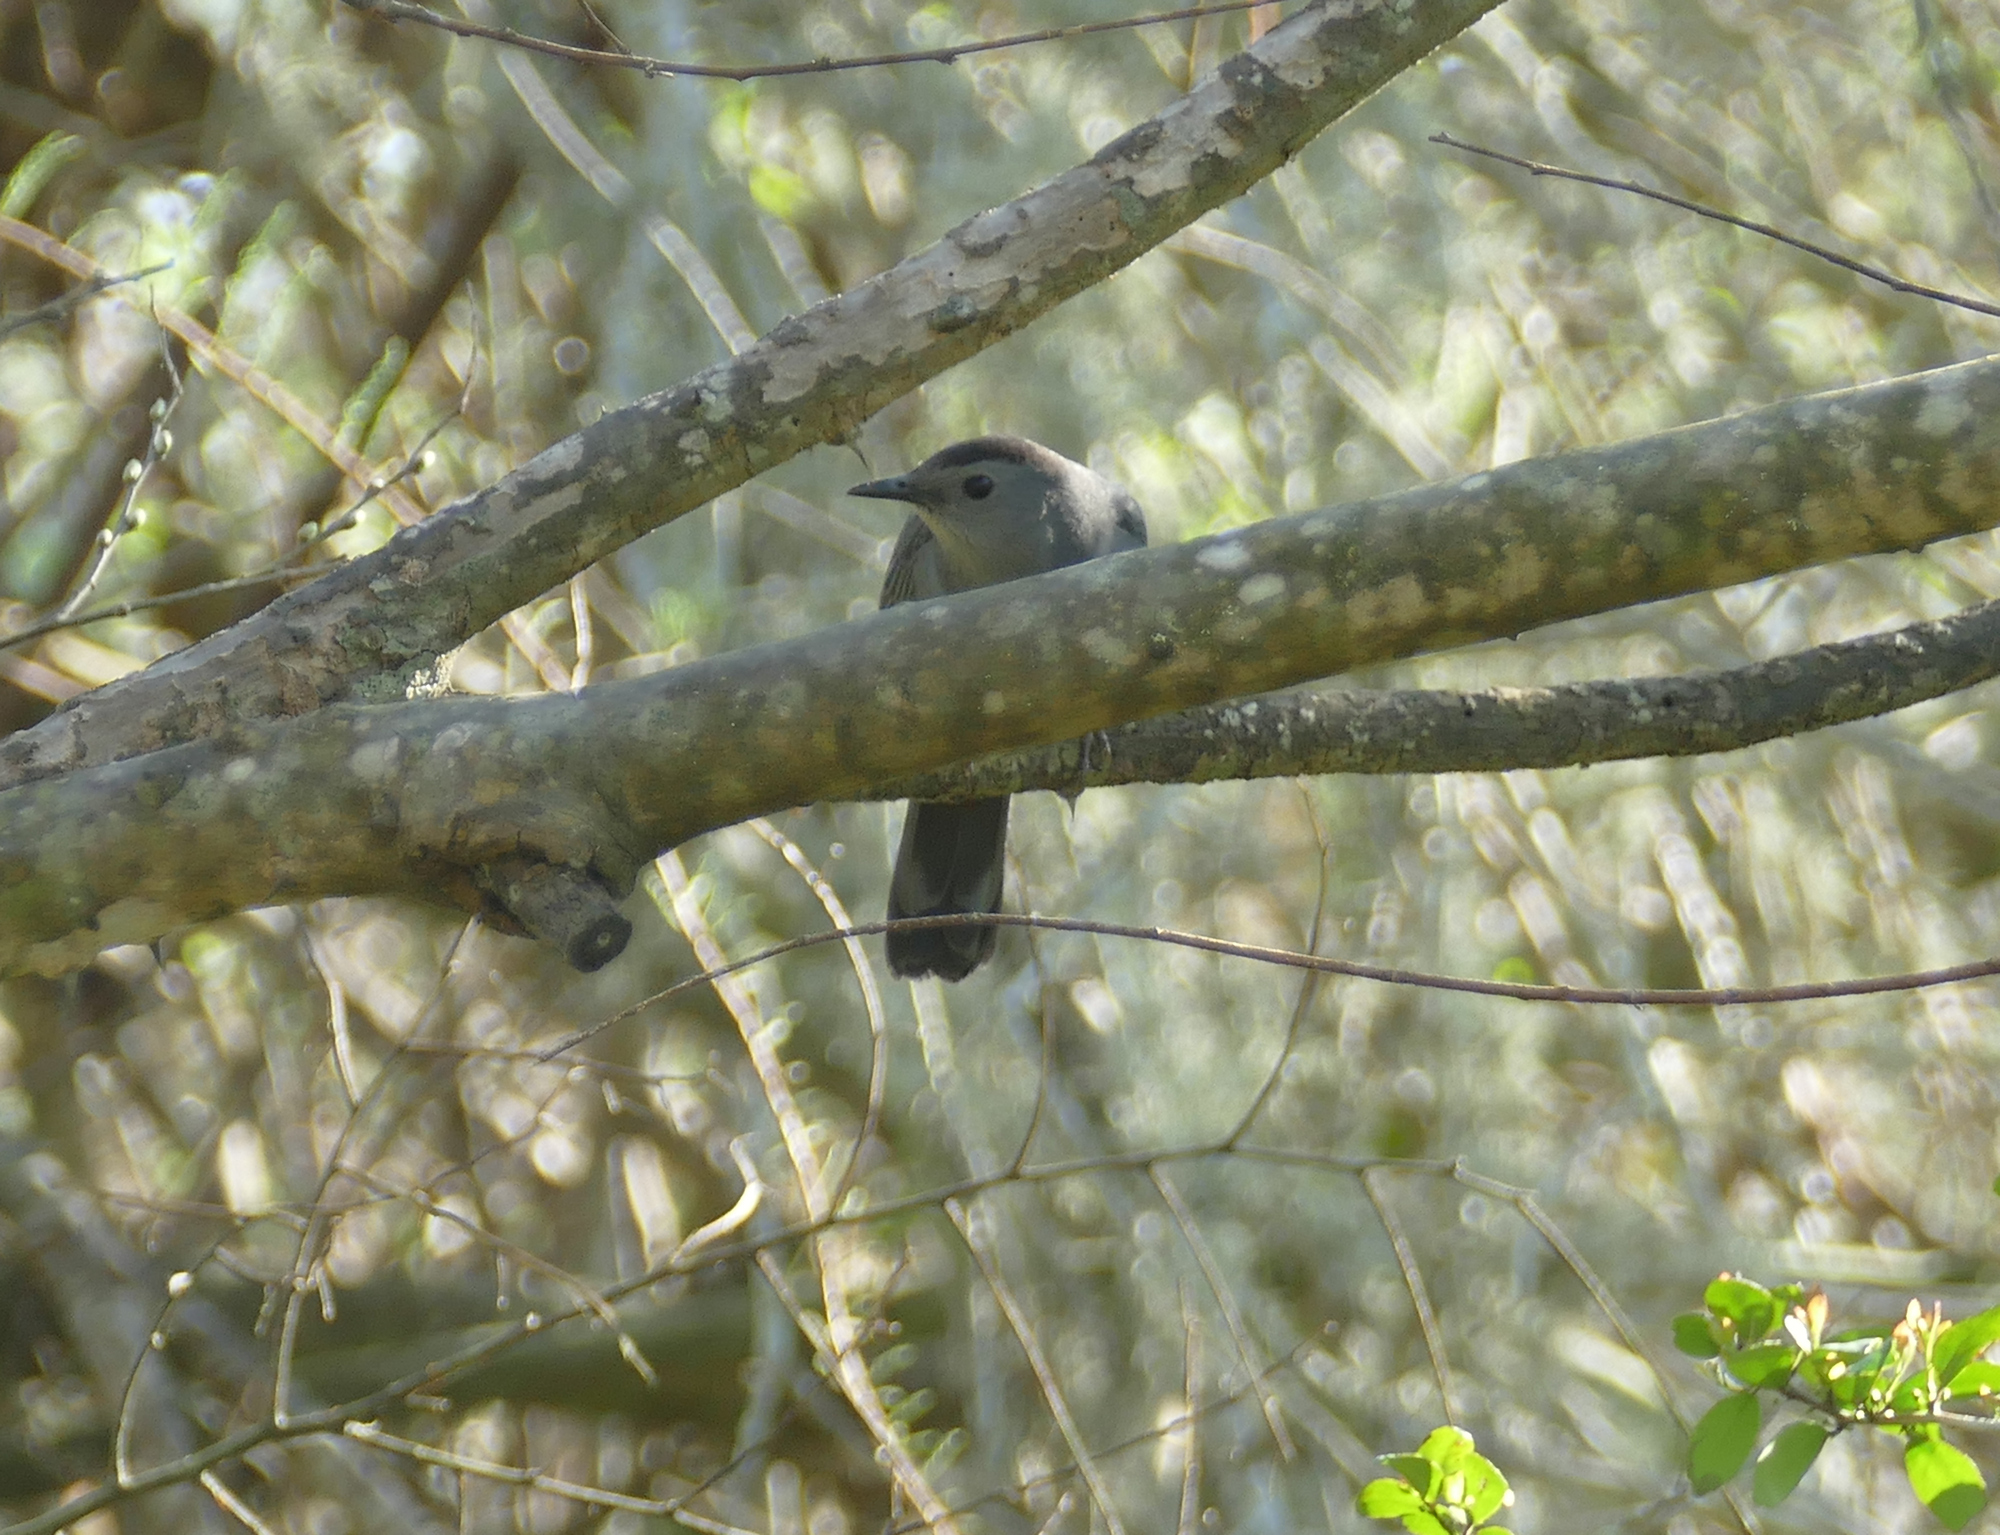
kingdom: Animalia
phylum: Chordata
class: Aves
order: Passeriformes
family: Mimidae
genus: Dumetella
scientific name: Dumetella carolinensis
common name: Gray catbird
